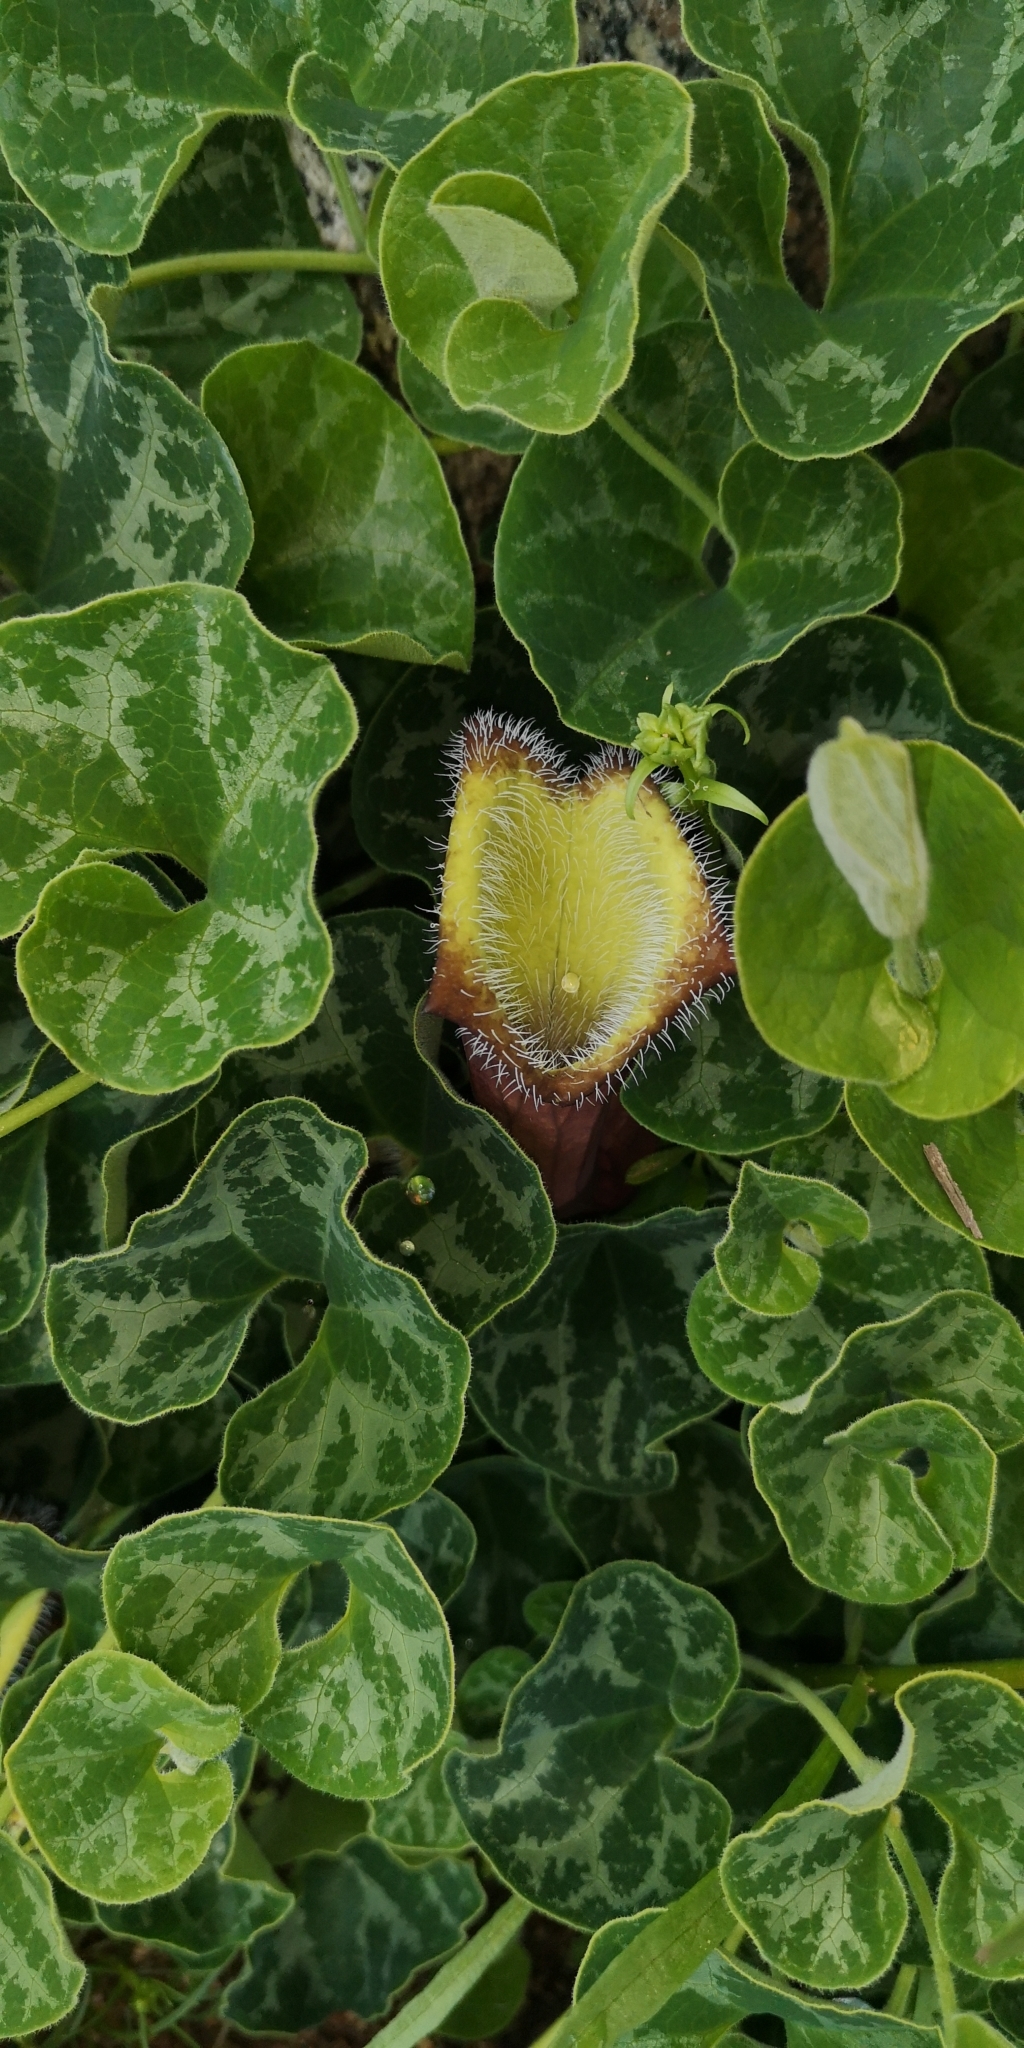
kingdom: Plantae
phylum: Tracheophyta
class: Magnoliopsida
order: Piperales
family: Aristolochiaceae
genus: Aristolochia
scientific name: Aristolochia chilensis
